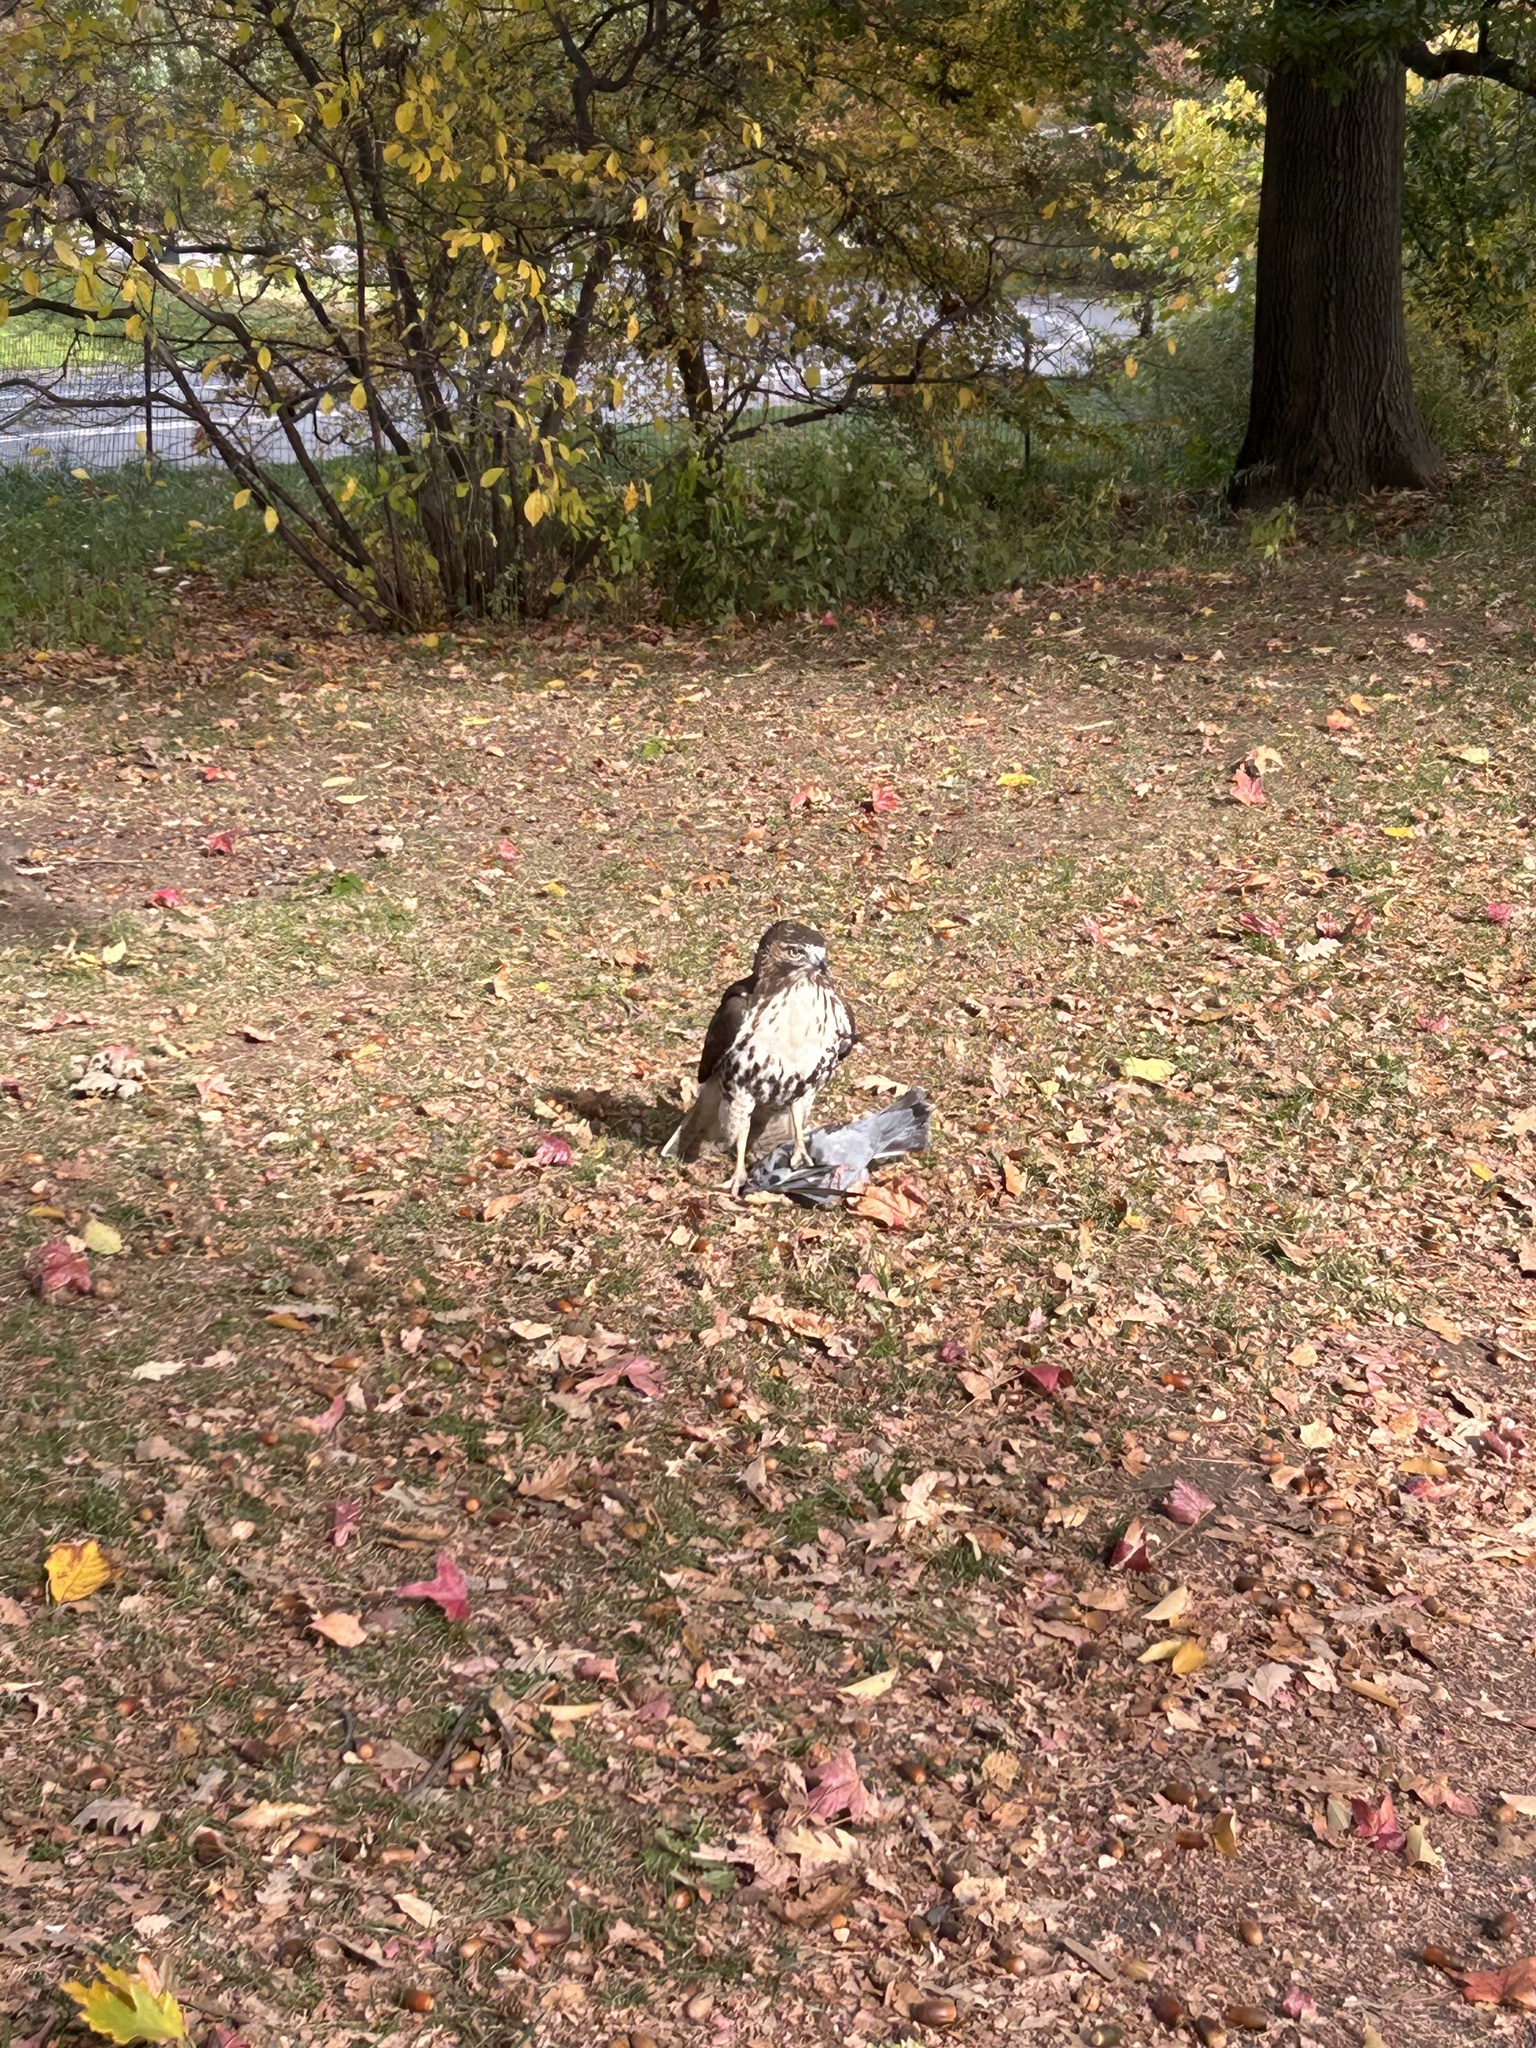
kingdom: Animalia
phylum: Chordata
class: Aves
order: Accipitriformes
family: Accipitridae
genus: Buteo
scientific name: Buteo jamaicensis
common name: Red-tailed hawk
